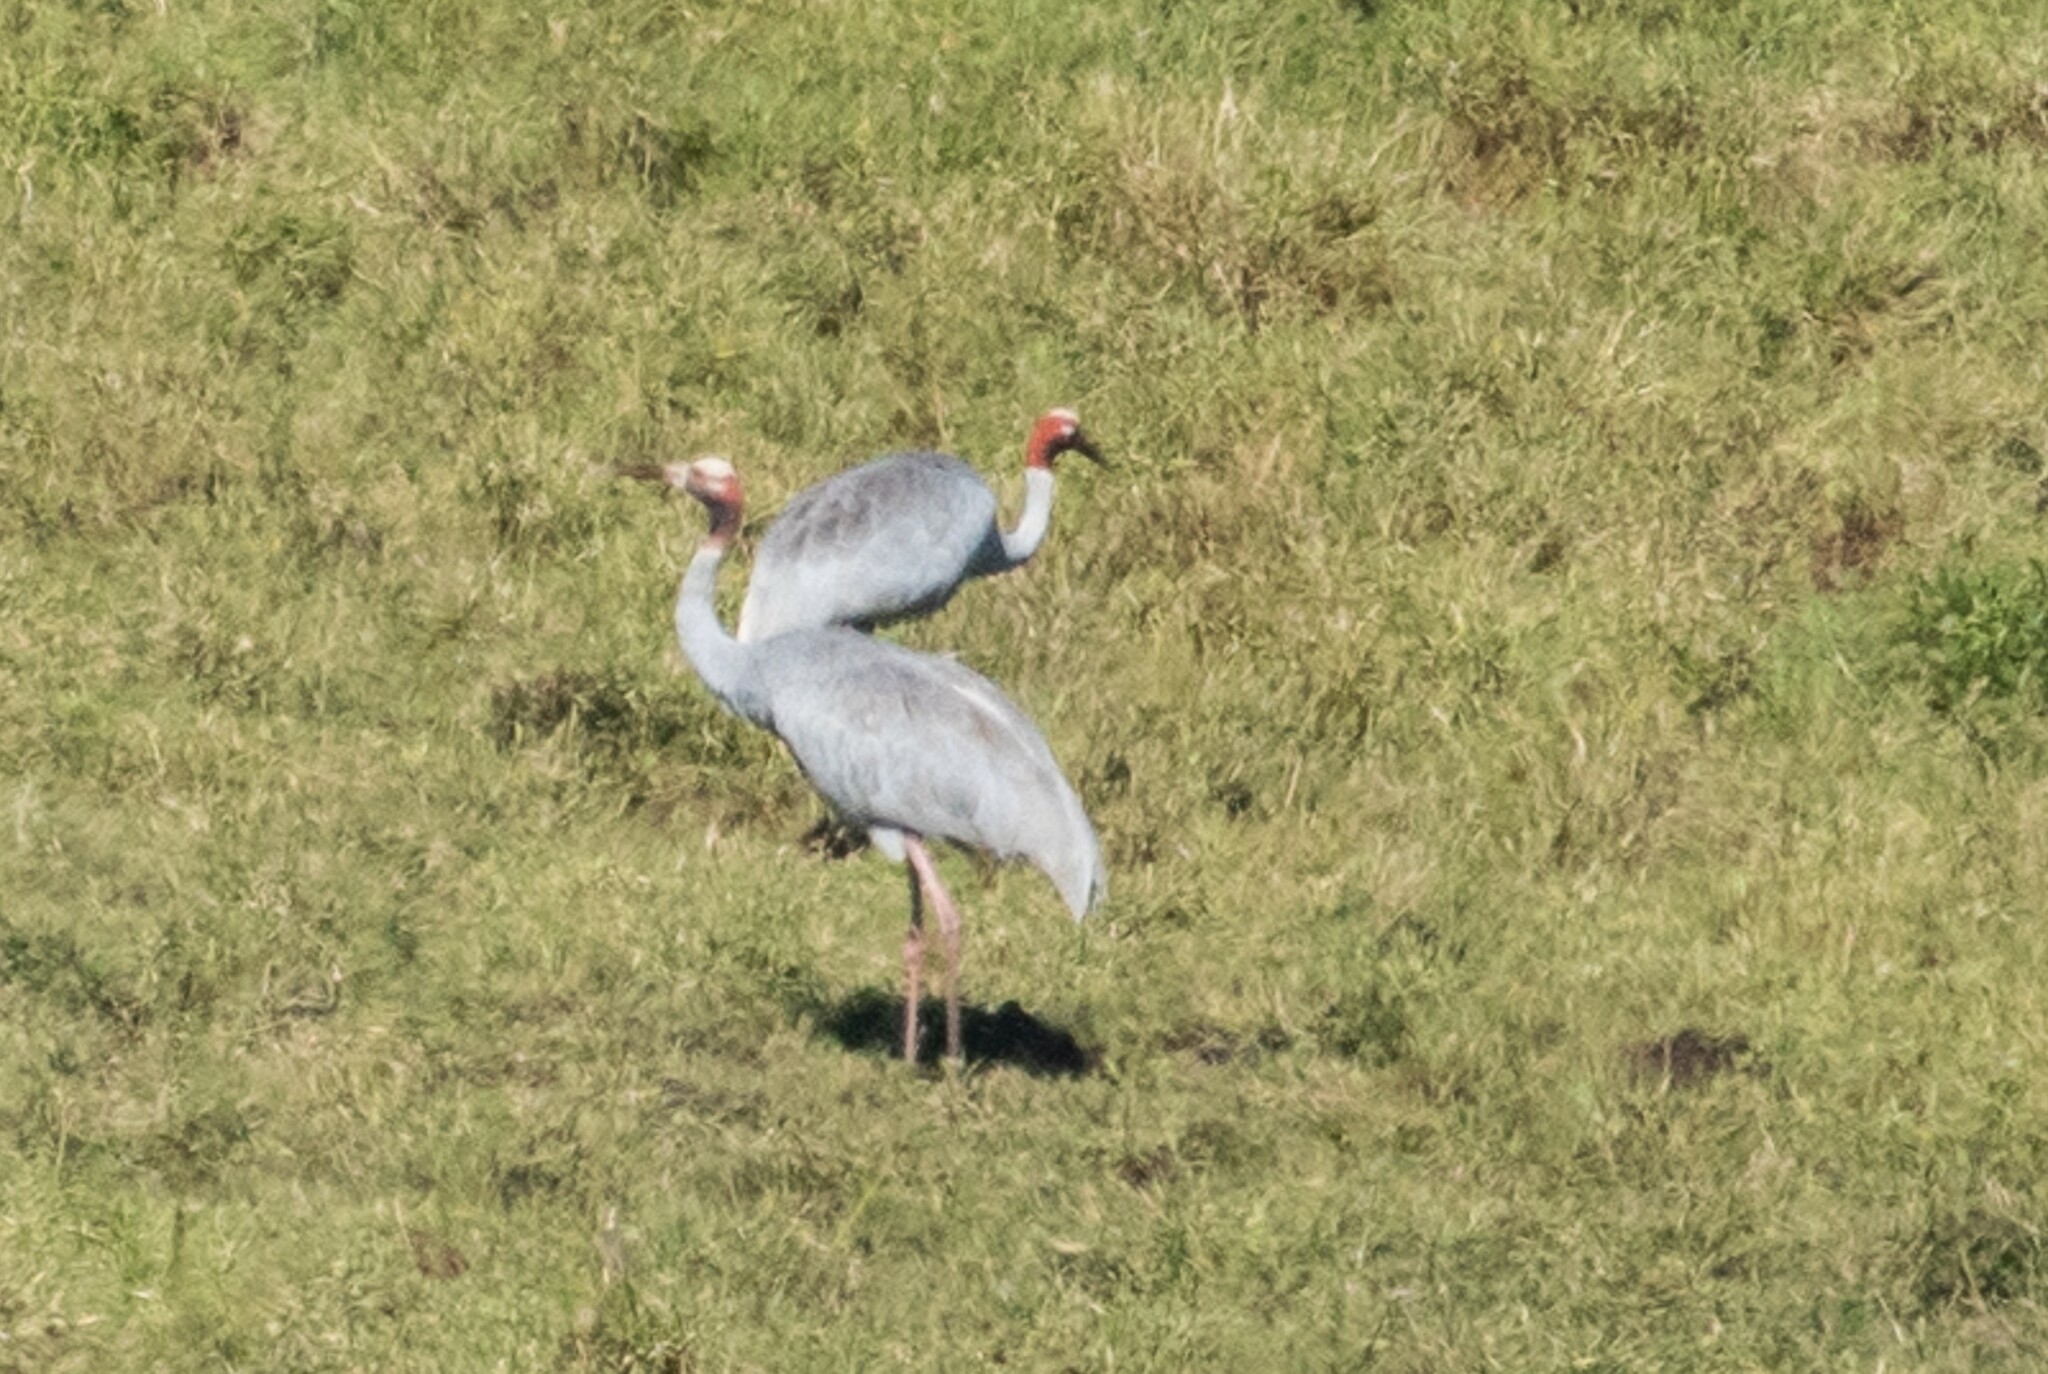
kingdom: Animalia
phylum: Chordata
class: Aves
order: Gruiformes
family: Gruidae
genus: Grus
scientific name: Grus antigone
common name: Sarus crane
